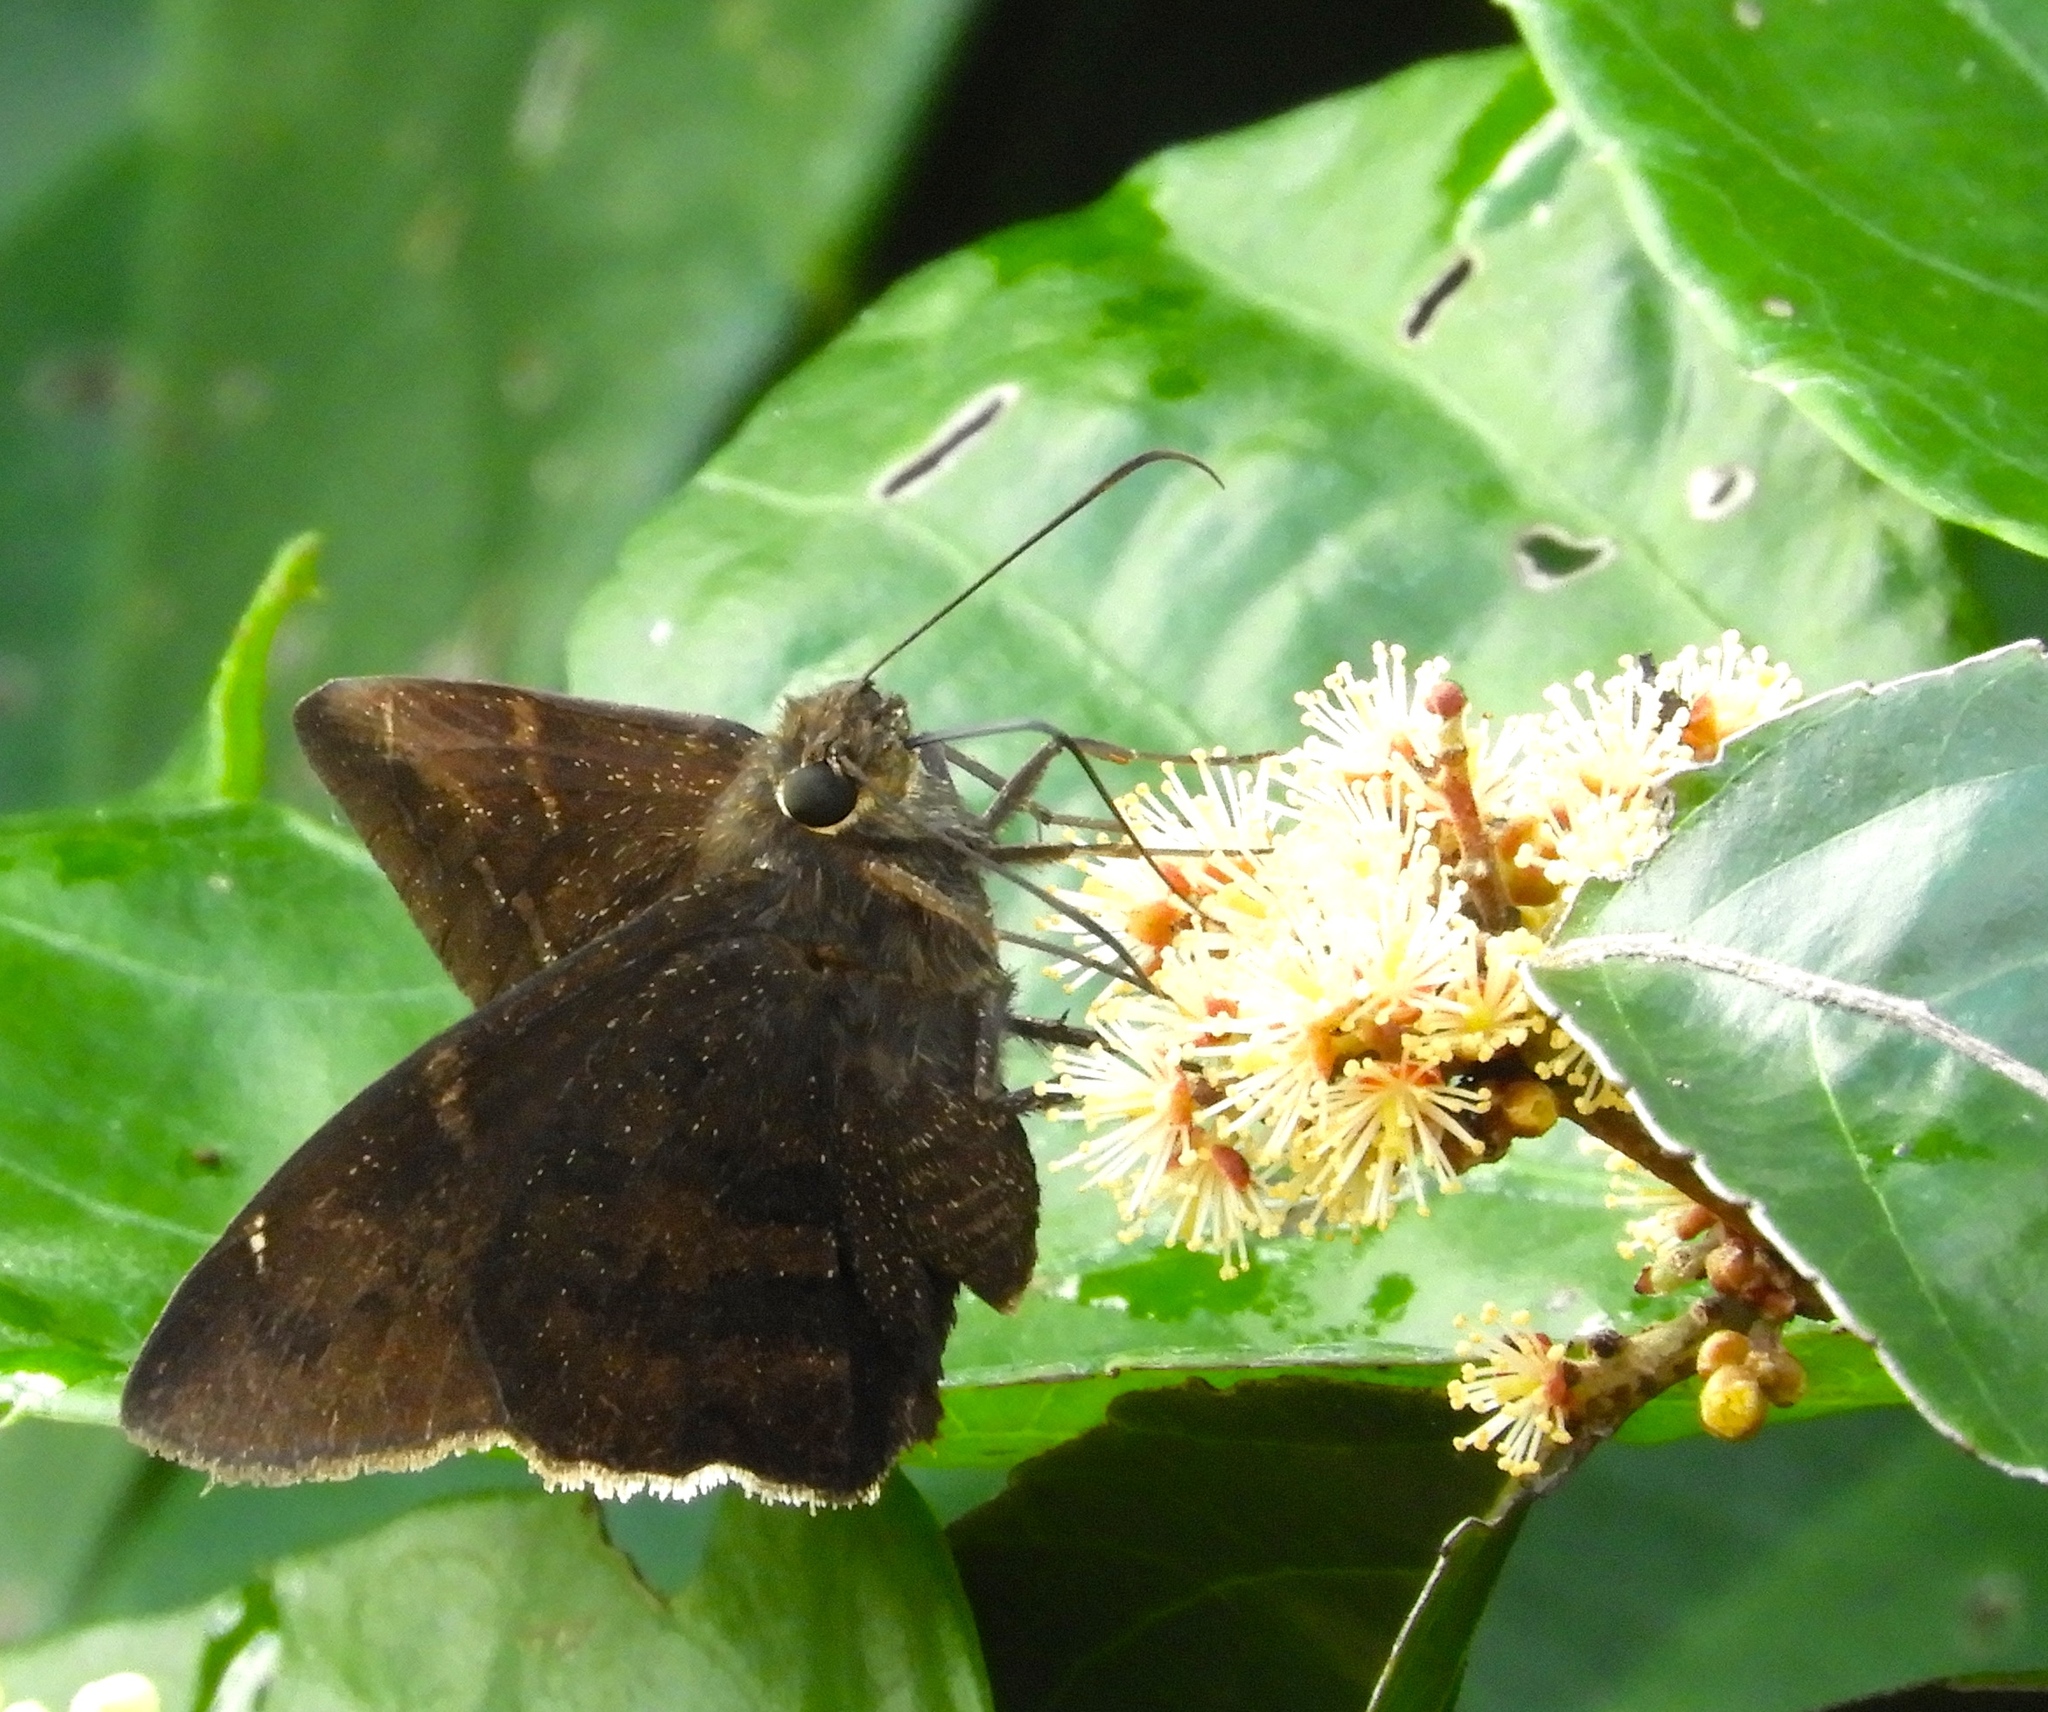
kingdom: Animalia
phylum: Arthropoda
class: Insecta
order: Lepidoptera
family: Hesperiidae
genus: Achalarus
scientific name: Achalarus
